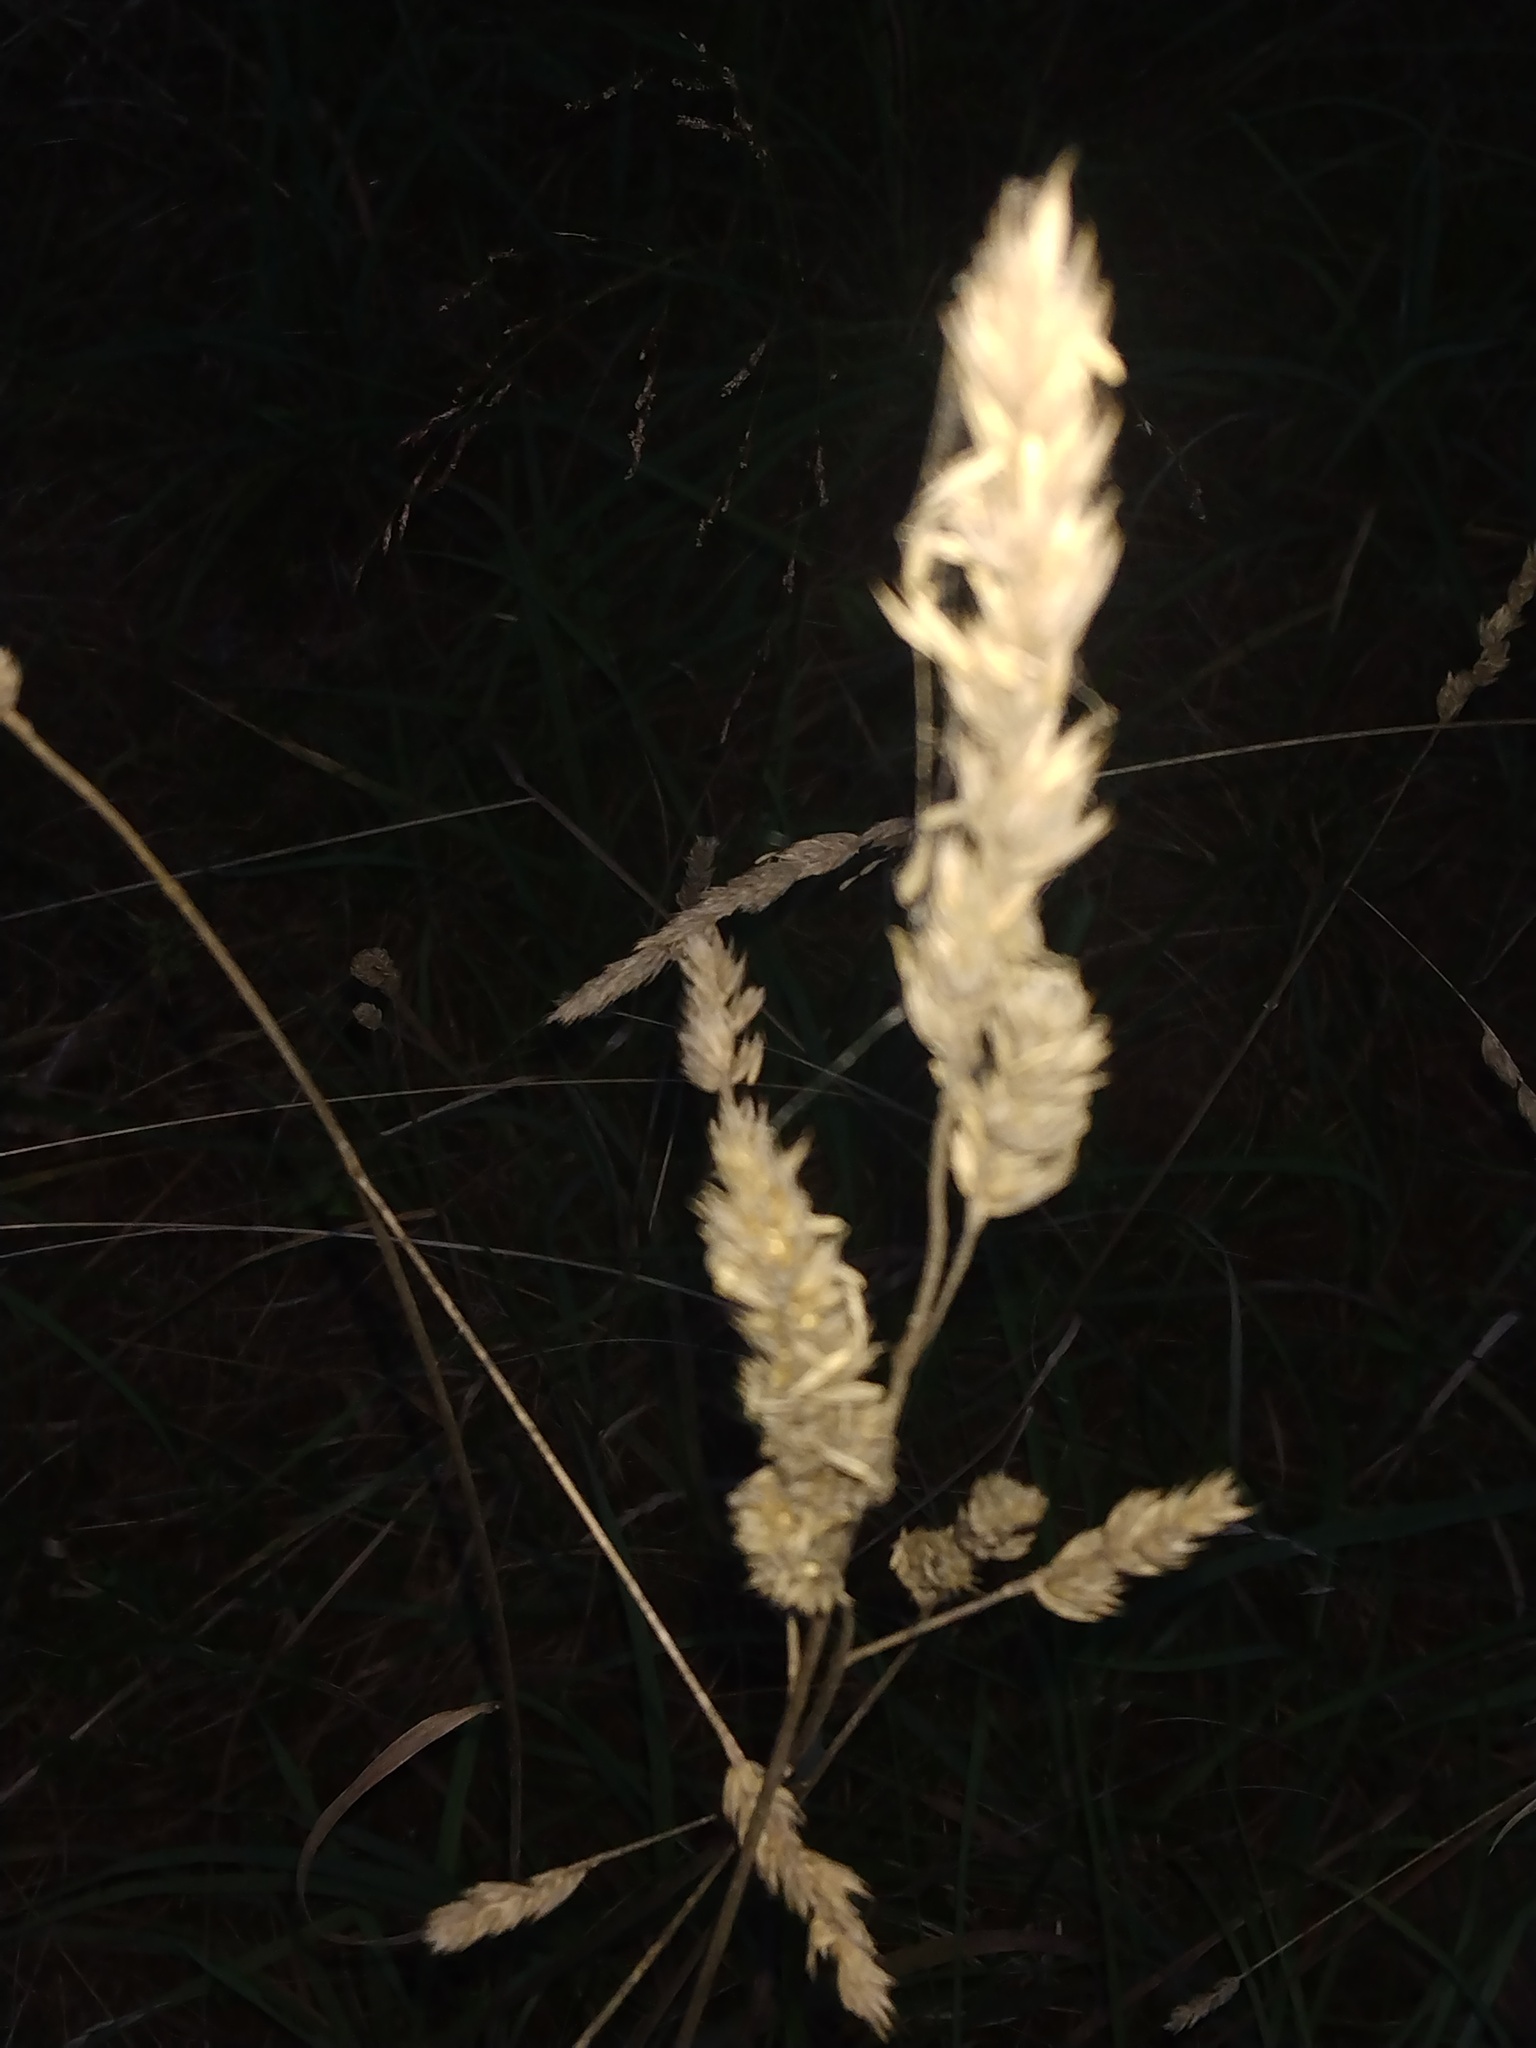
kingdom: Plantae
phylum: Tracheophyta
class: Liliopsida
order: Poales
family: Poaceae
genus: Dactylis
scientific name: Dactylis glomerata
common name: Orchardgrass
